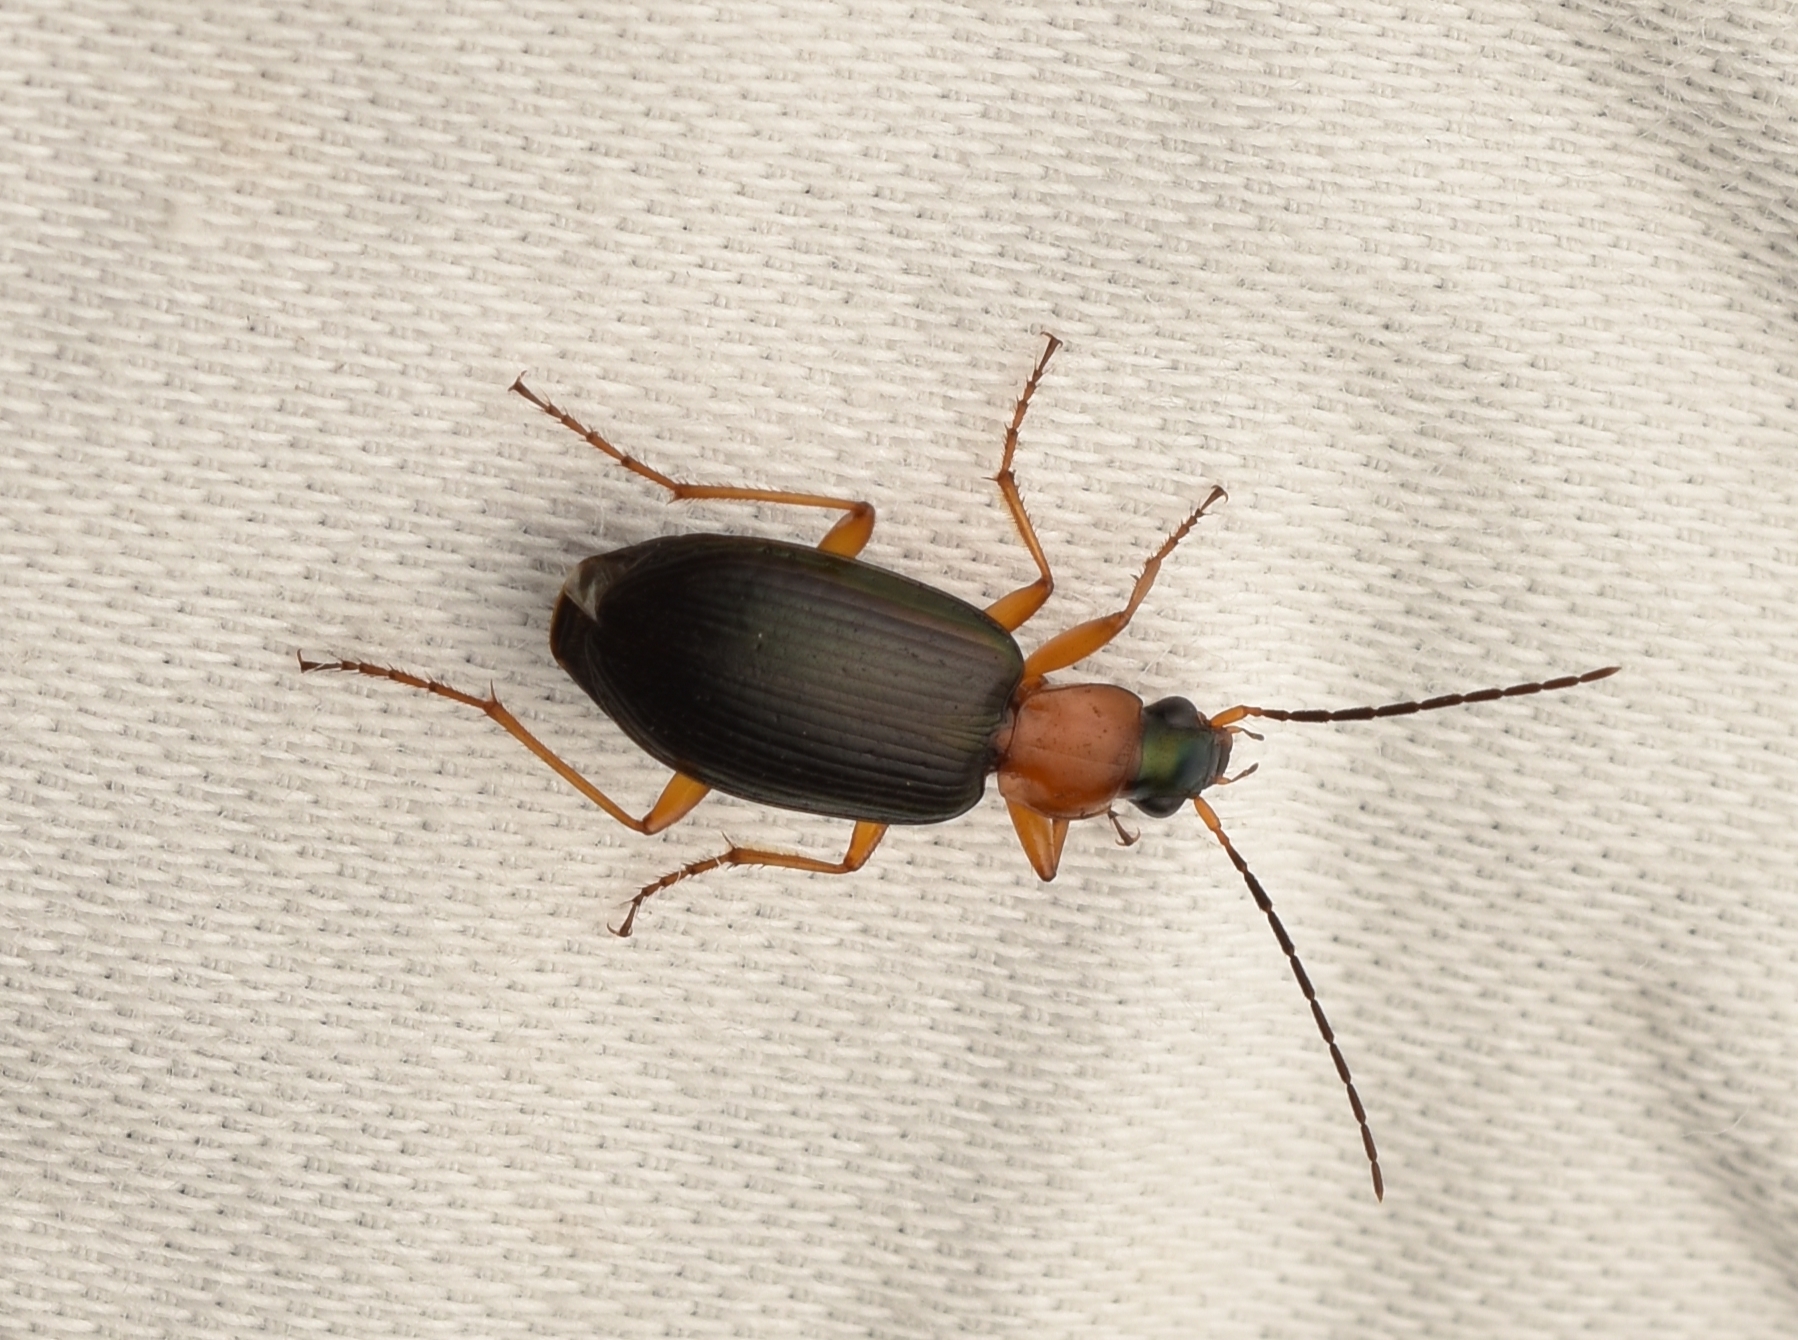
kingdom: Animalia
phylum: Arthropoda
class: Insecta
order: Coleoptera
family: Carabidae
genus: Agonum
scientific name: Agonum decorum
